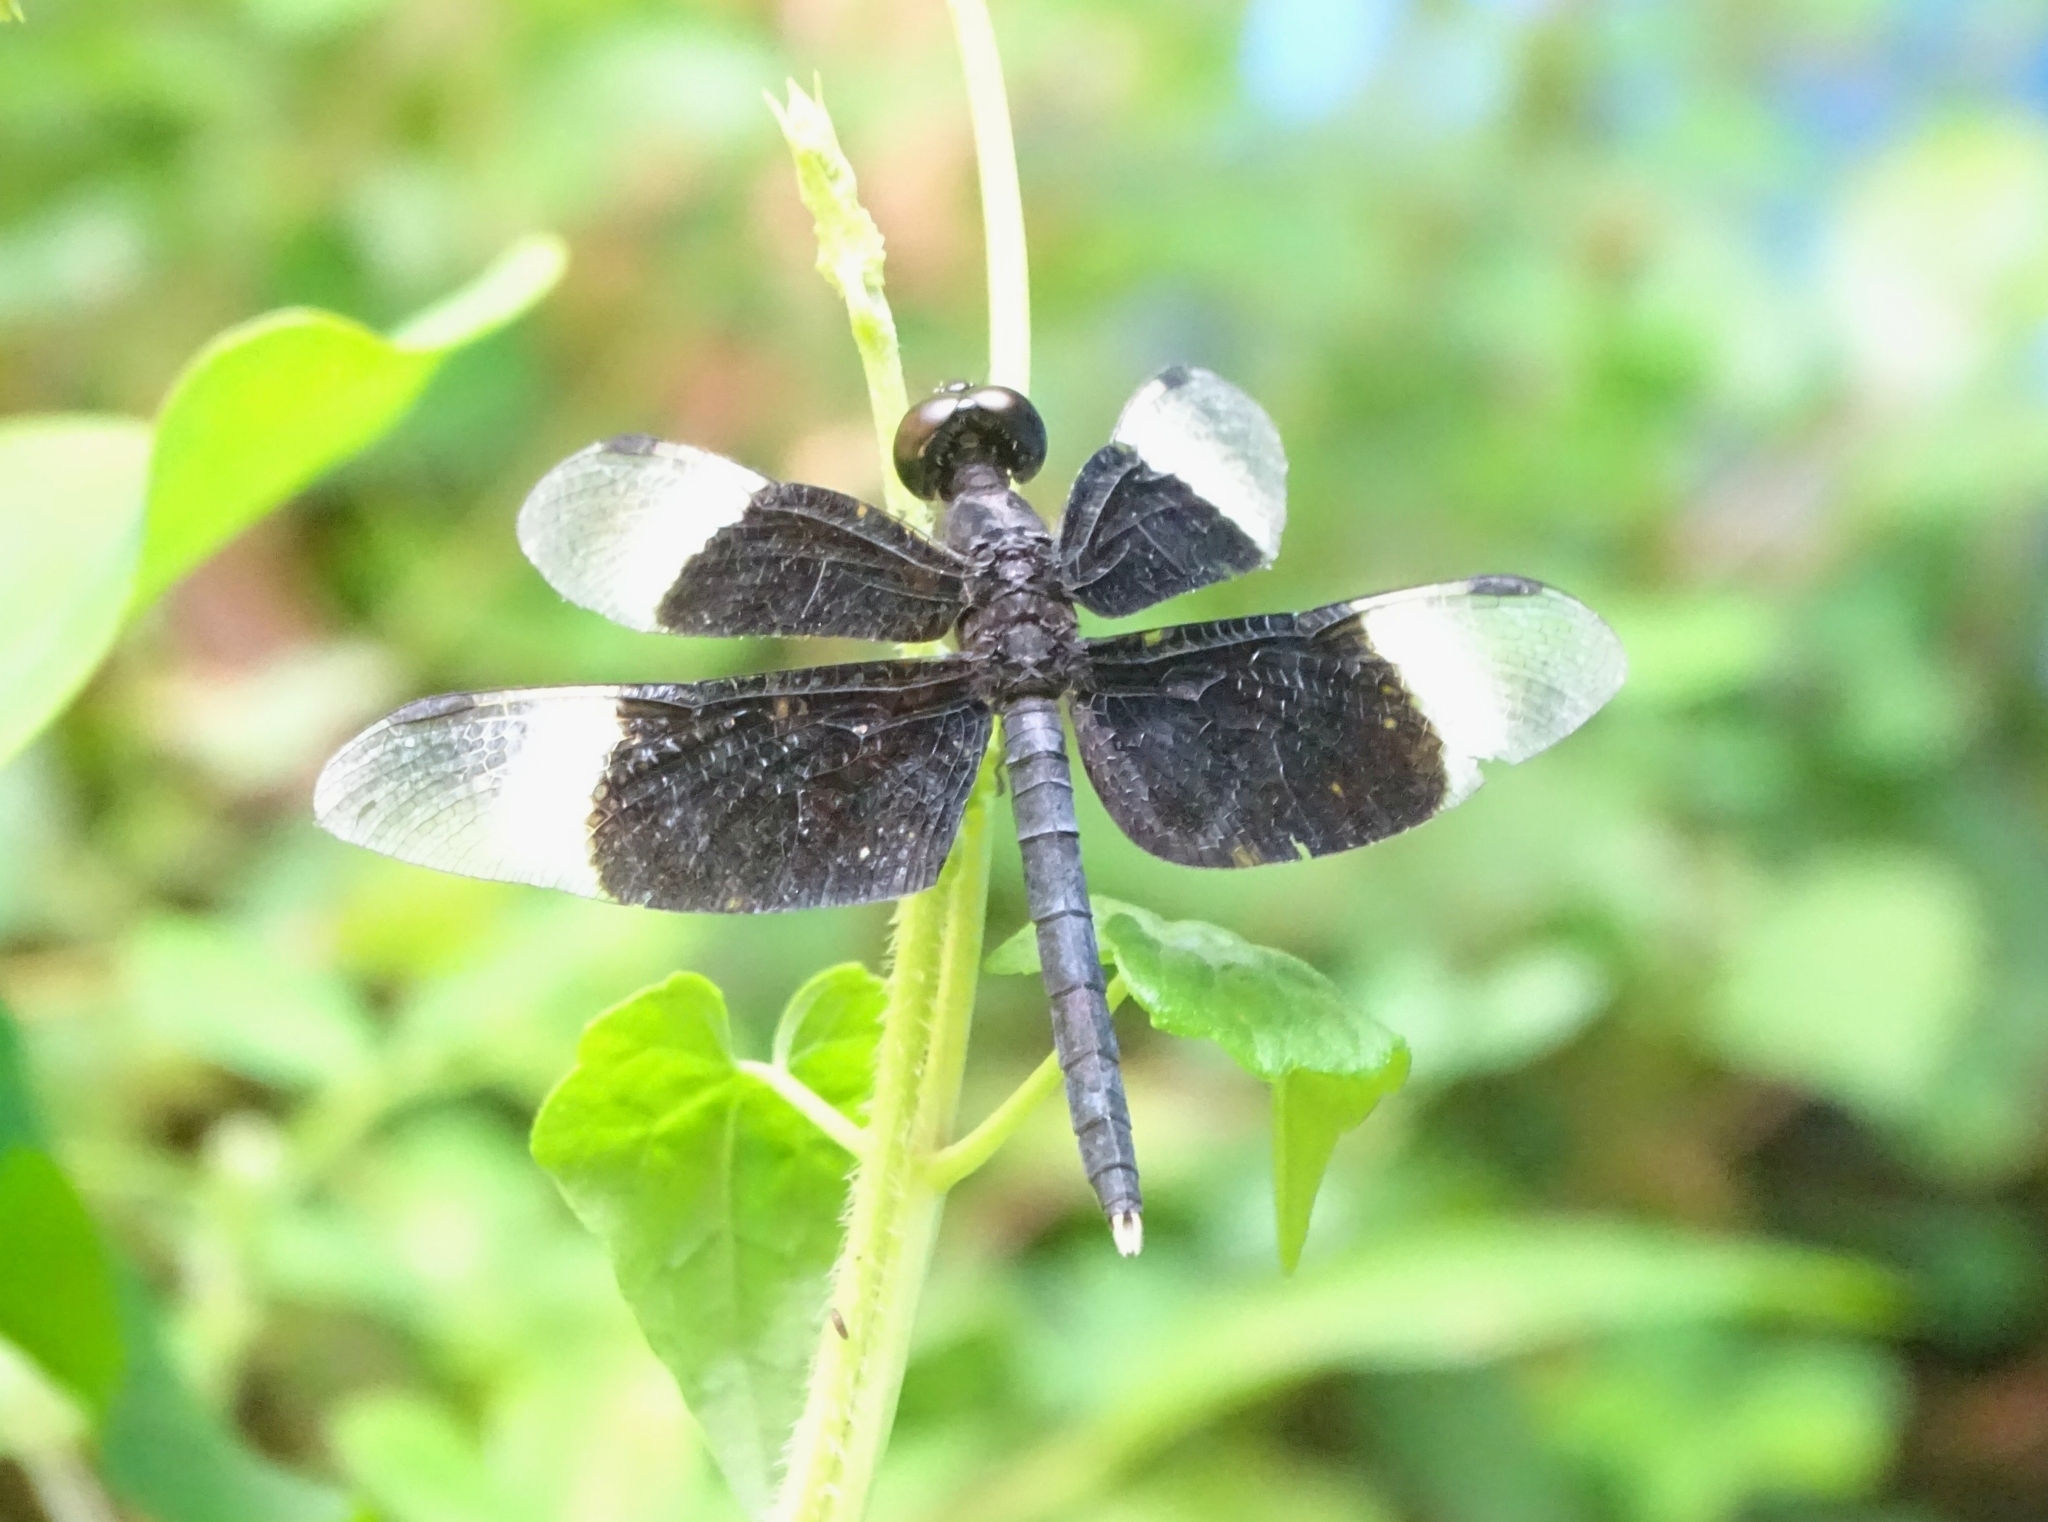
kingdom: Animalia
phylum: Arthropoda
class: Insecta
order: Odonata
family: Libellulidae
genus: Neurothemis
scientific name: Neurothemis tullia
